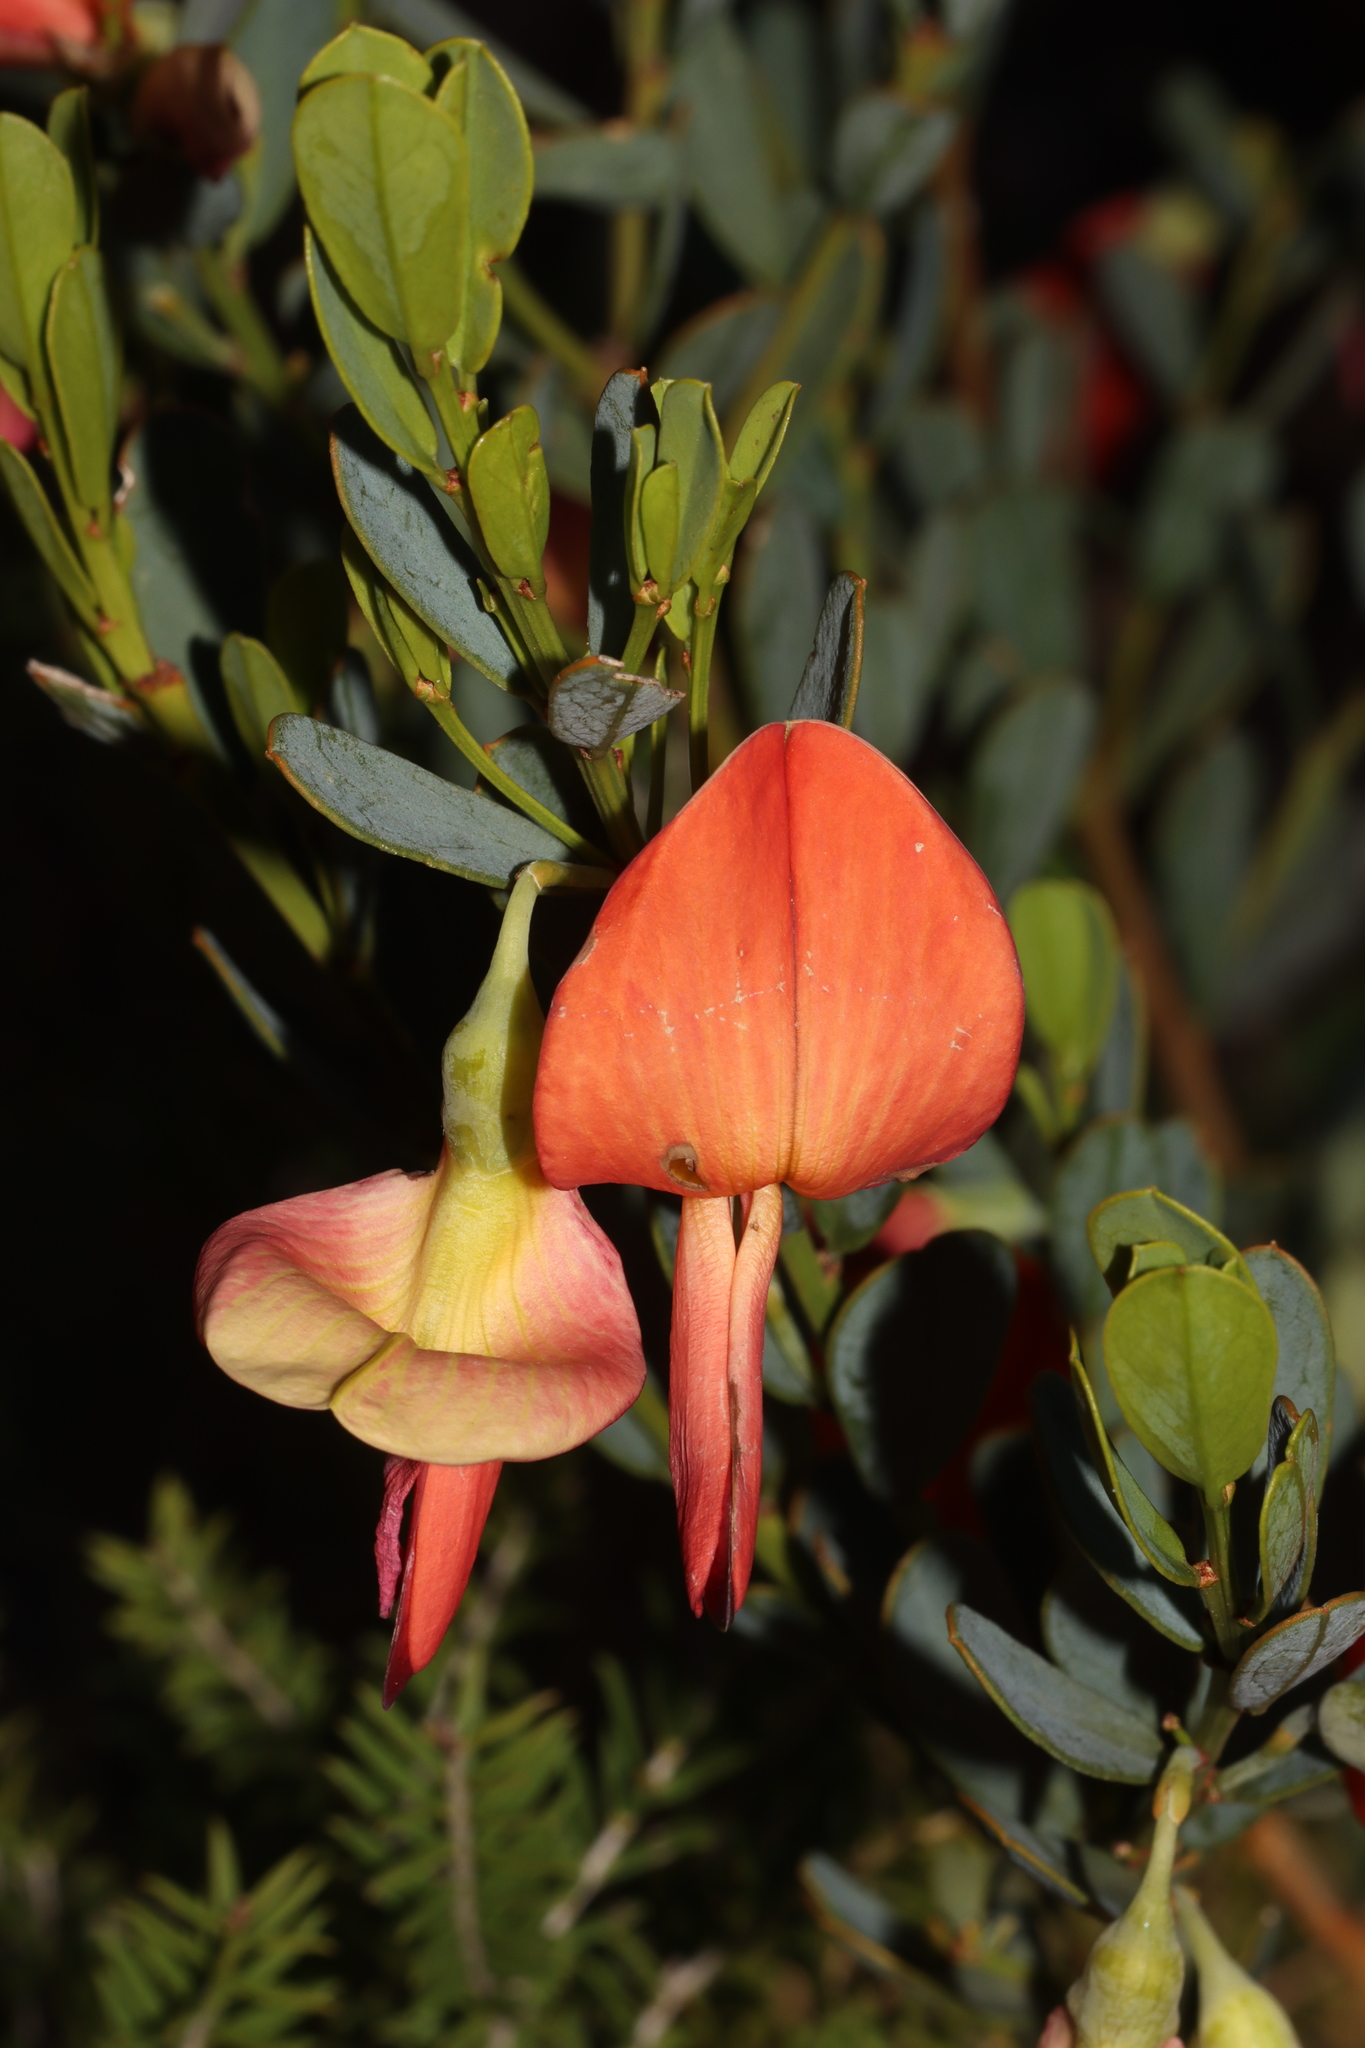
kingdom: Plantae
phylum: Tracheophyta
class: Magnoliopsida
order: Fabales
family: Fabaceae
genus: Templetonia
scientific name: Templetonia retusa
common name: Cockies'-tongue
